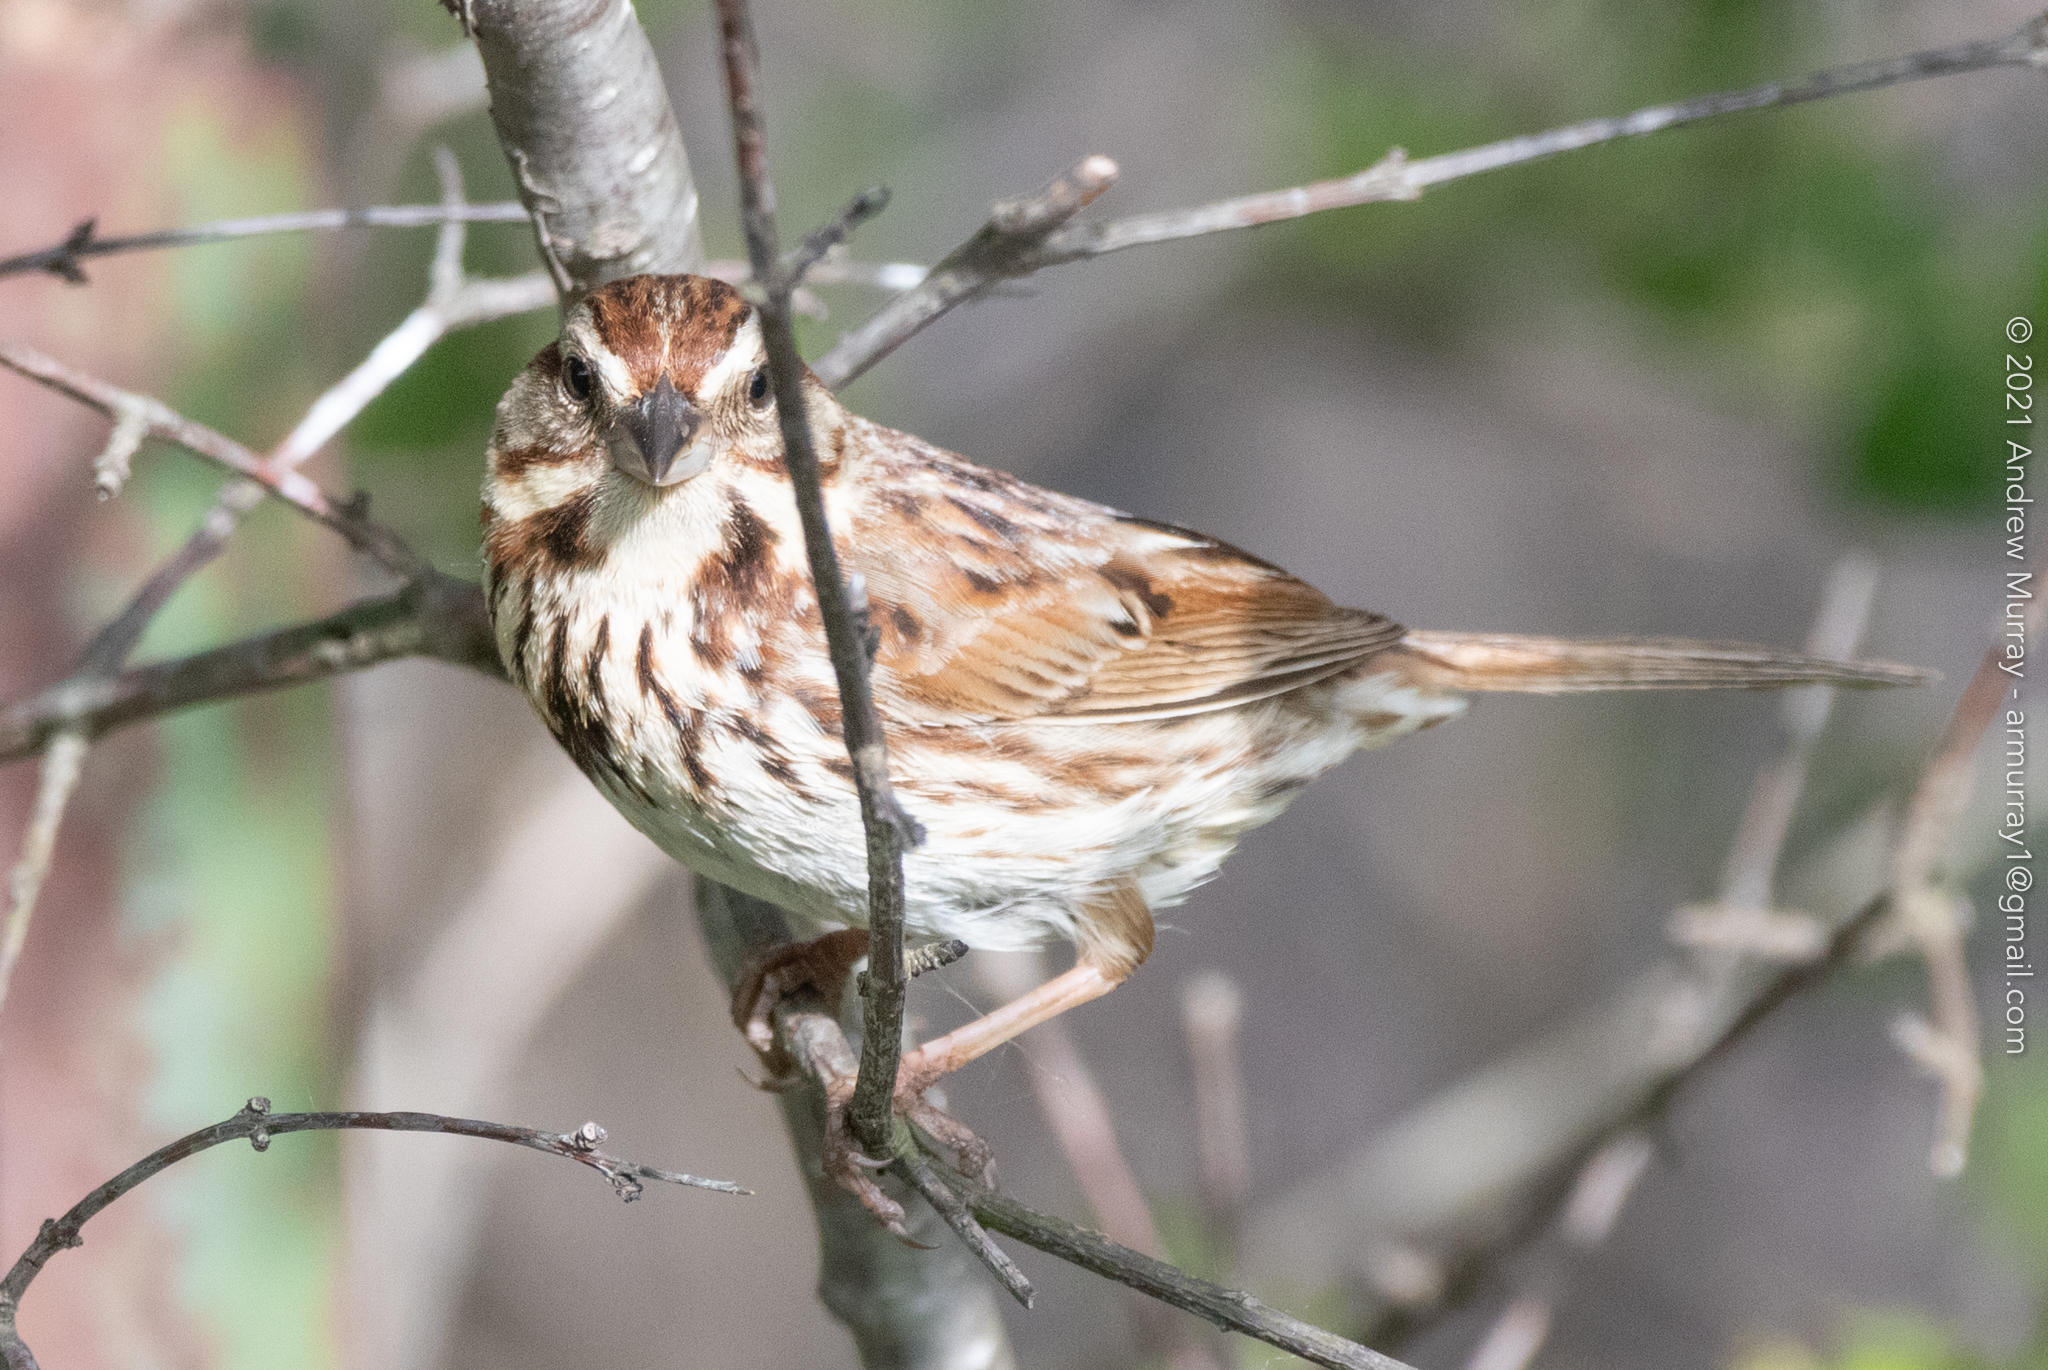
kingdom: Animalia
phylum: Chordata
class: Aves
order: Passeriformes
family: Passerellidae
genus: Melospiza
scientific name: Melospiza melodia
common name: Song sparrow
